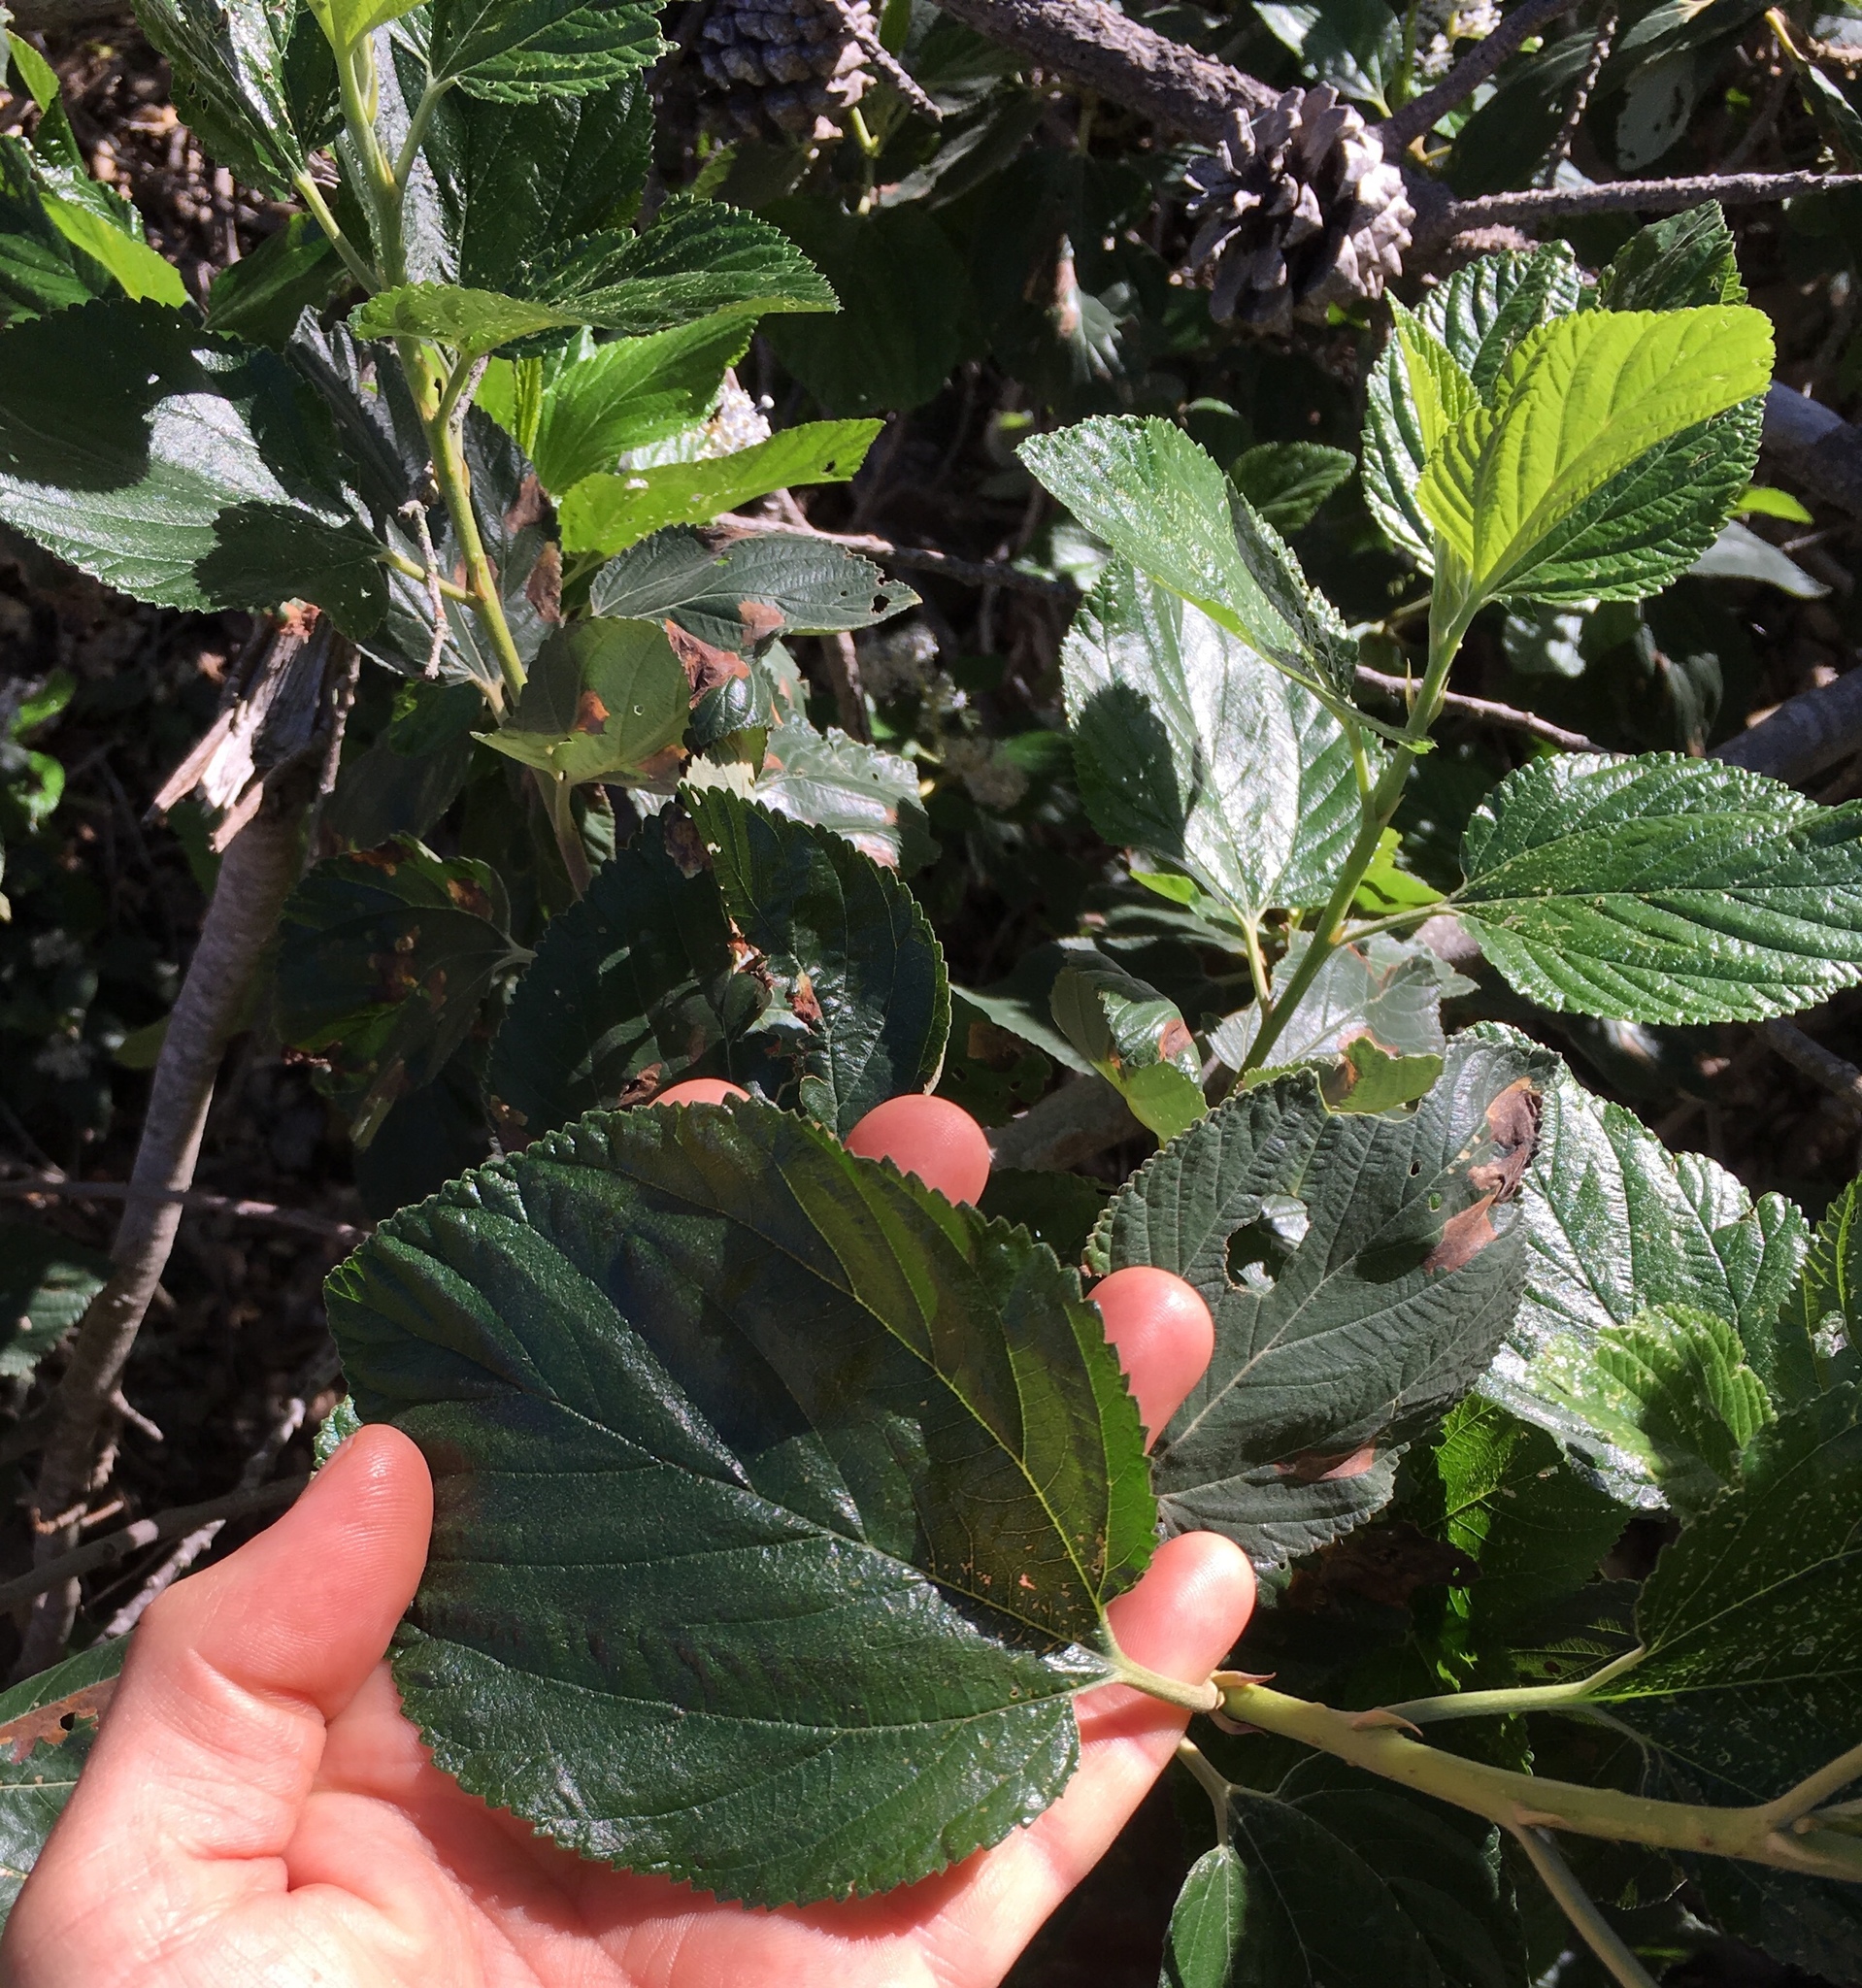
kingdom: Plantae
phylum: Tracheophyta
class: Magnoliopsida
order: Rosales
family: Rhamnaceae
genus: Ceanothus
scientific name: Ceanothus arboreus
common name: Catalina mountain-lilac
